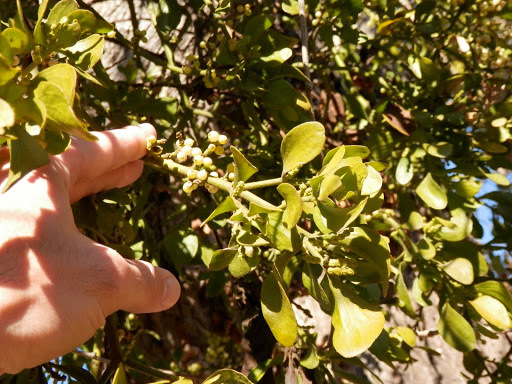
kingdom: Plantae
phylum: Tracheophyta
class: Magnoliopsida
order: Santalales
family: Viscaceae
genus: Phoradendron
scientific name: Phoradendron
